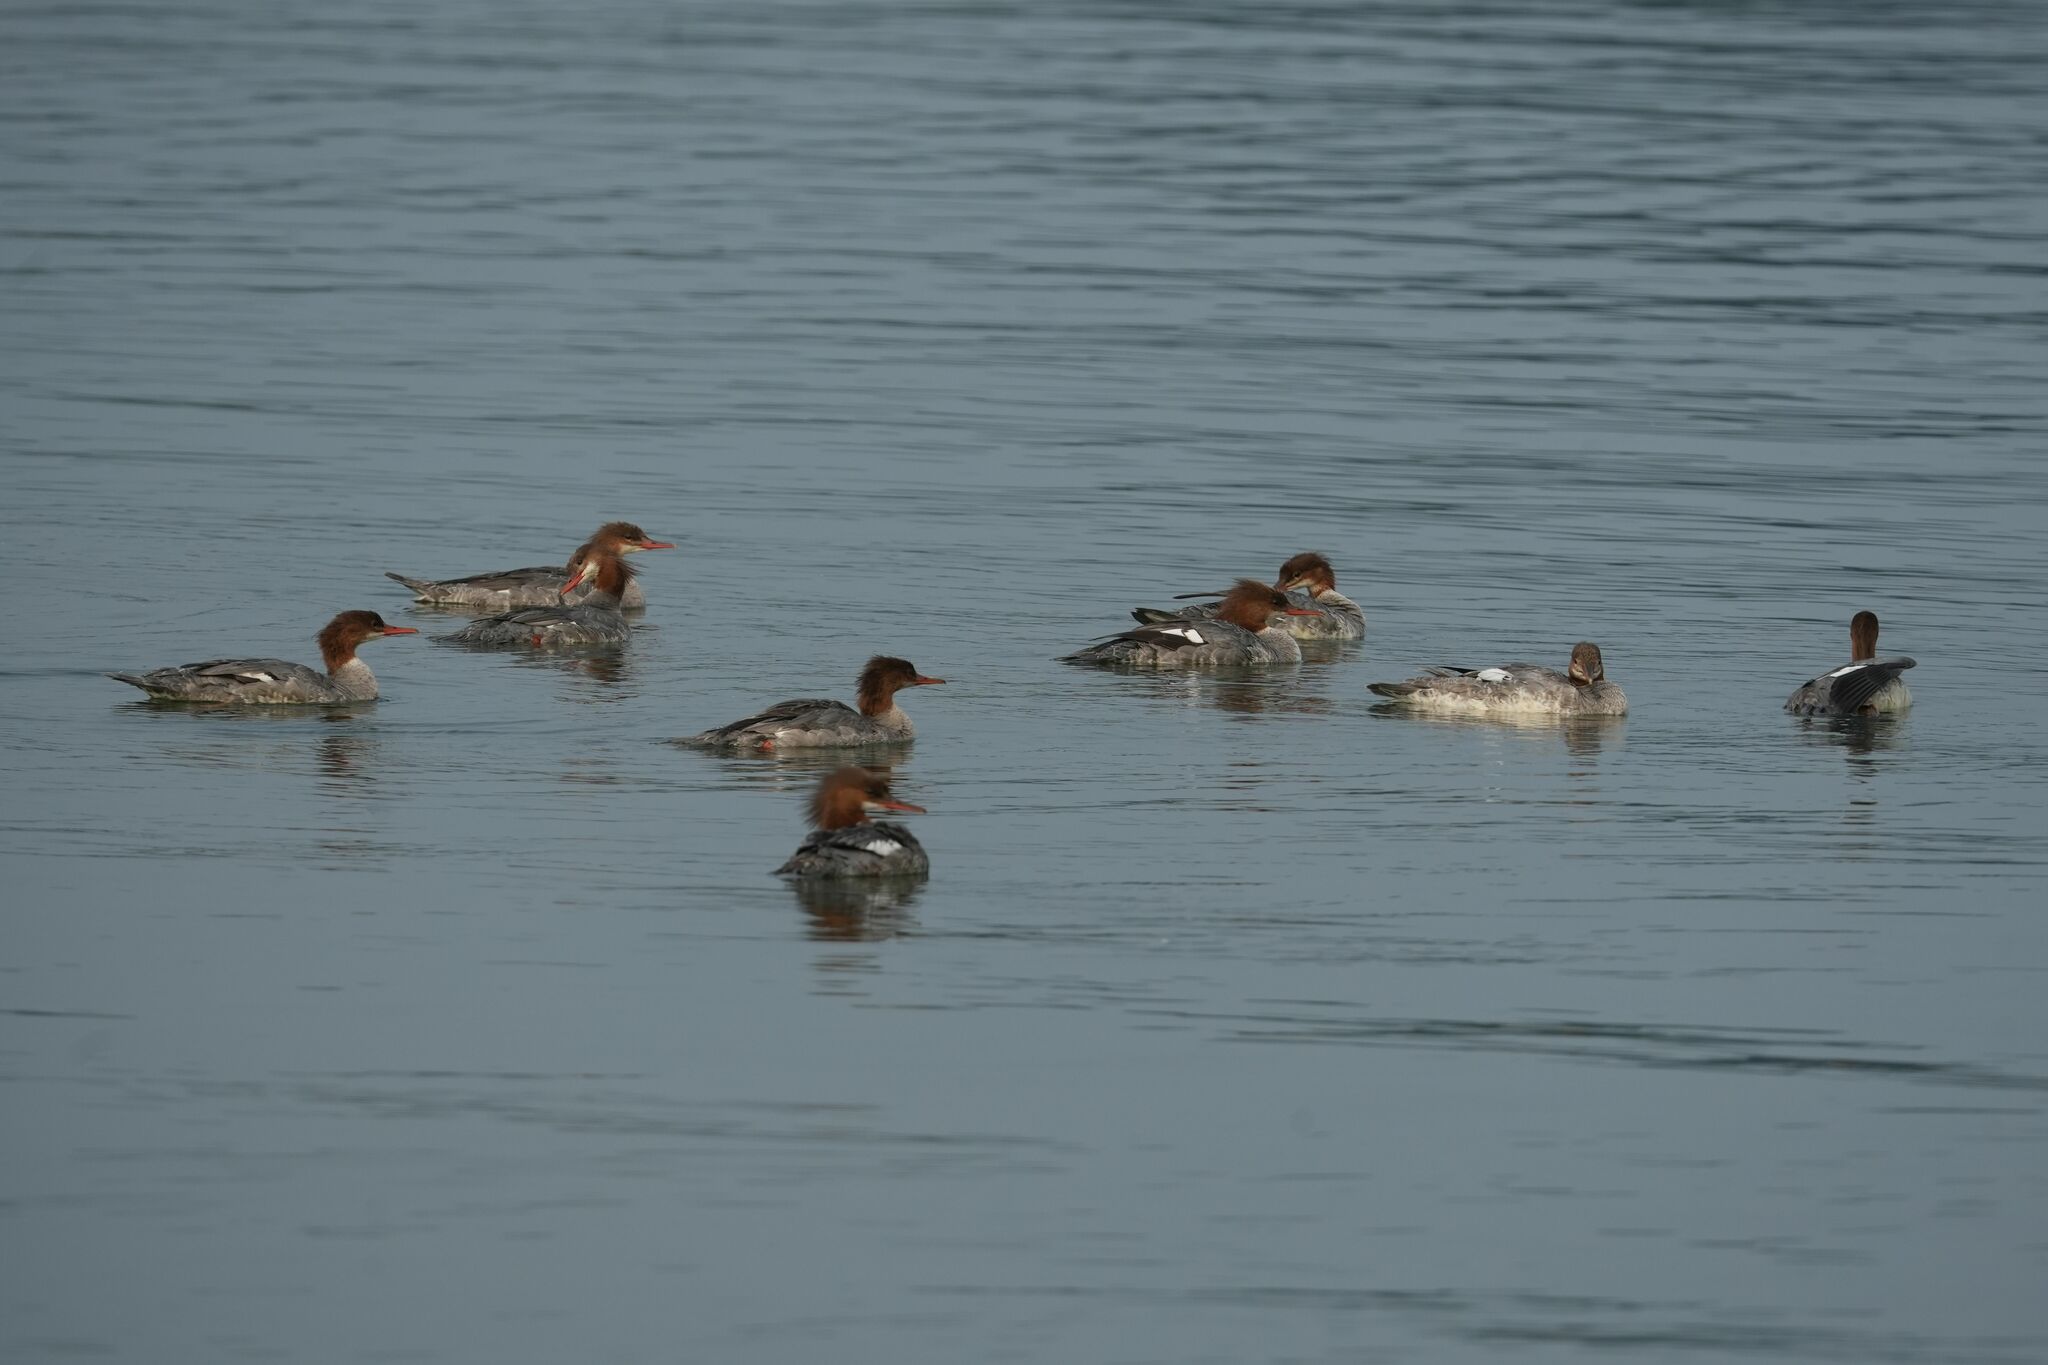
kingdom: Animalia
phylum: Chordata
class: Aves
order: Anseriformes
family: Anatidae
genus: Mergus
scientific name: Mergus merganser
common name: Common merganser
